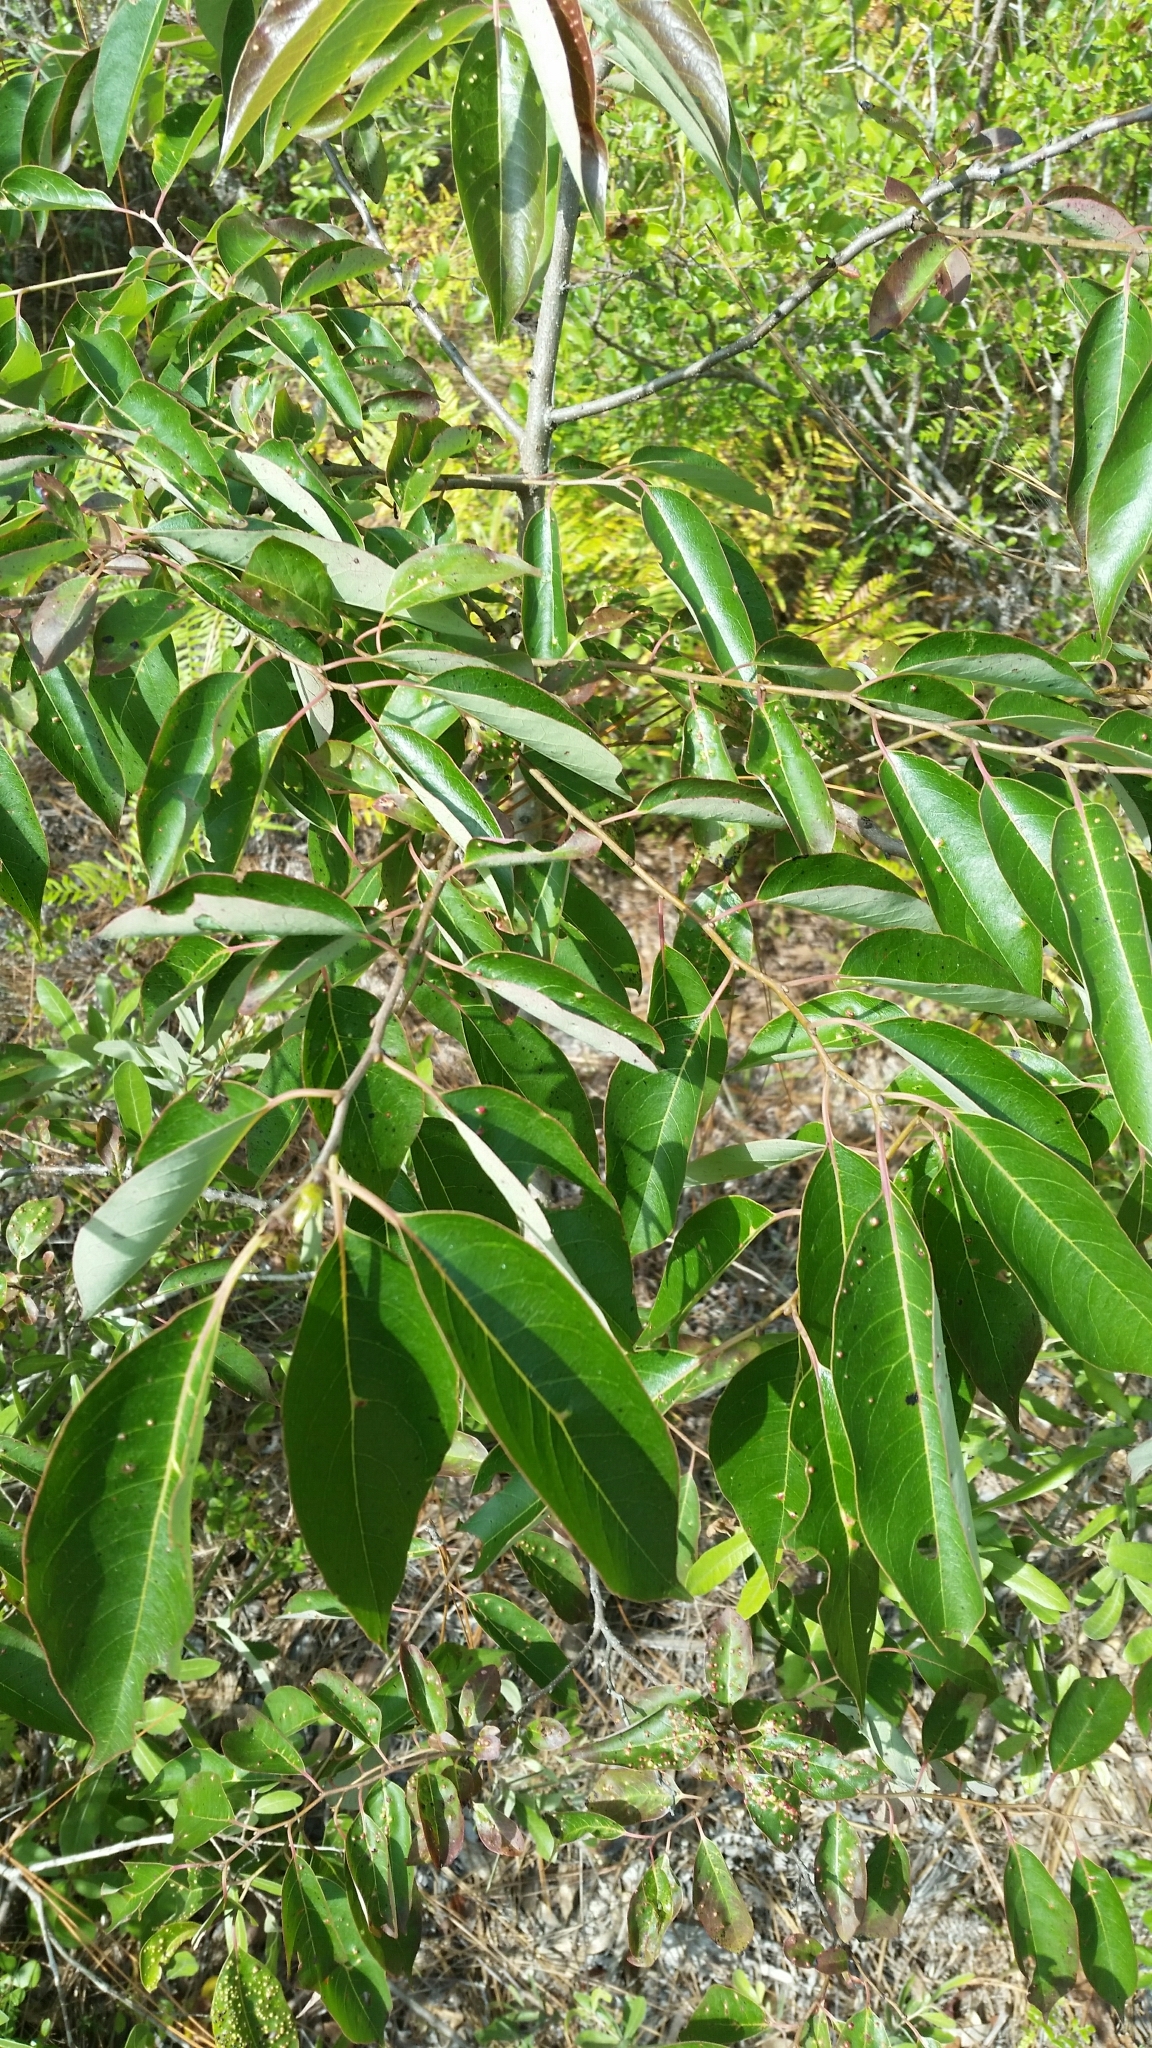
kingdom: Plantae
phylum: Tracheophyta
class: Magnoliopsida
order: Ericales
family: Ebenaceae
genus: Diospyros
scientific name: Diospyros virginiana
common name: Persimmon
